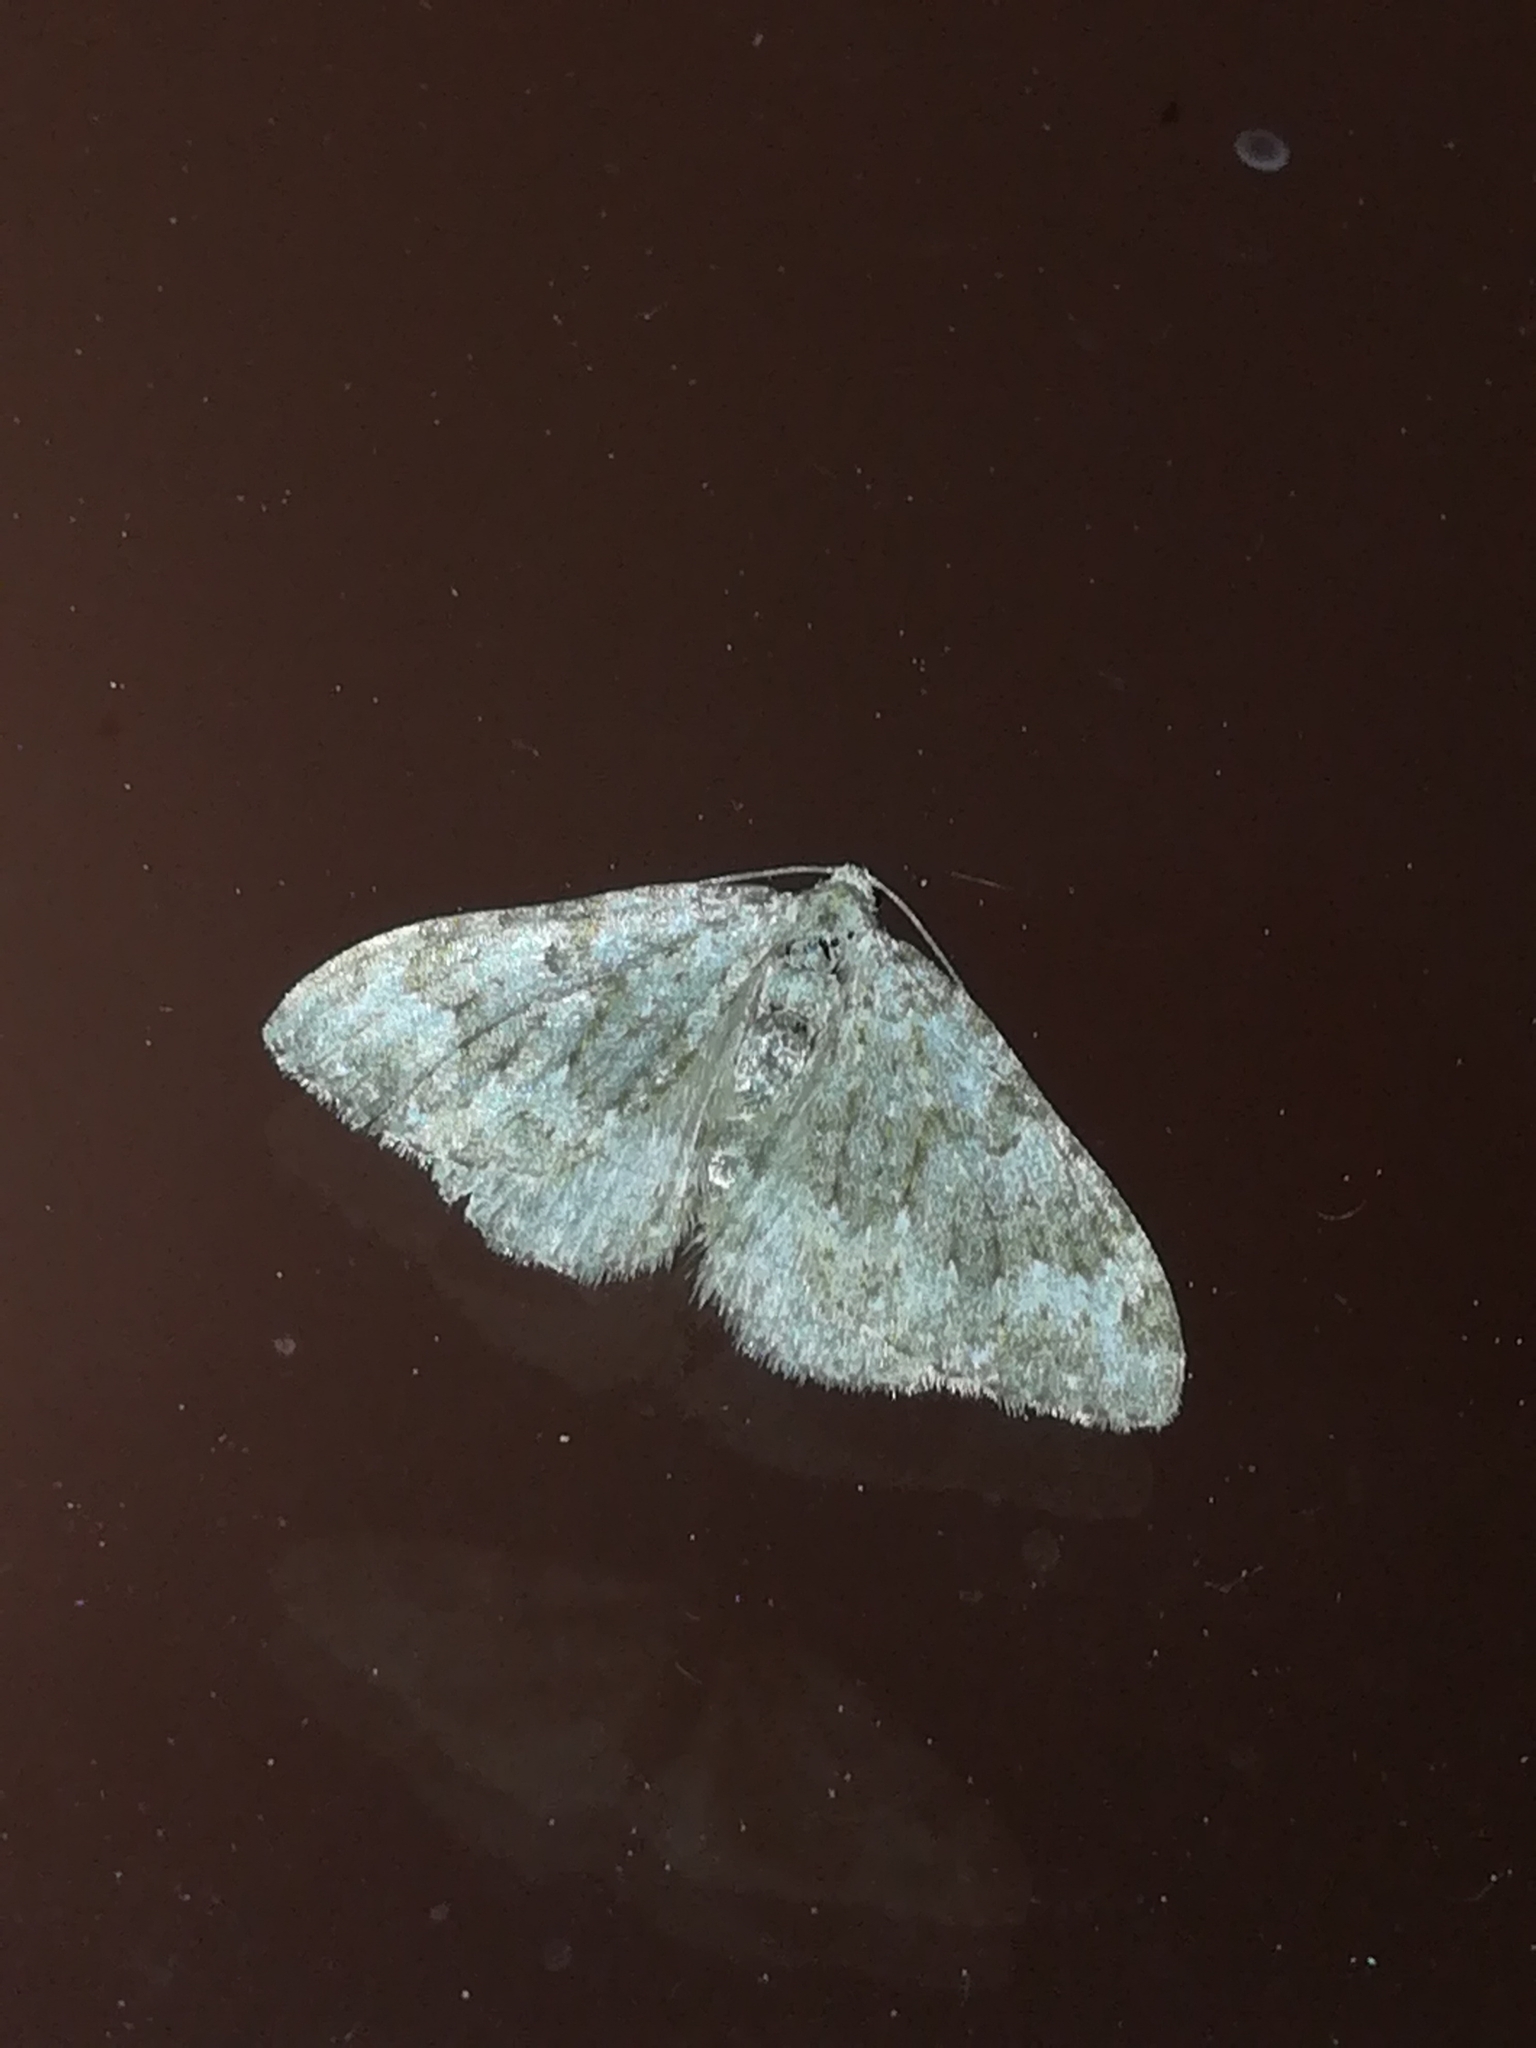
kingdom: Animalia
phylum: Arthropoda
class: Insecta
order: Lepidoptera
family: Geometridae
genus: Nebula
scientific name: Nebula salicata
